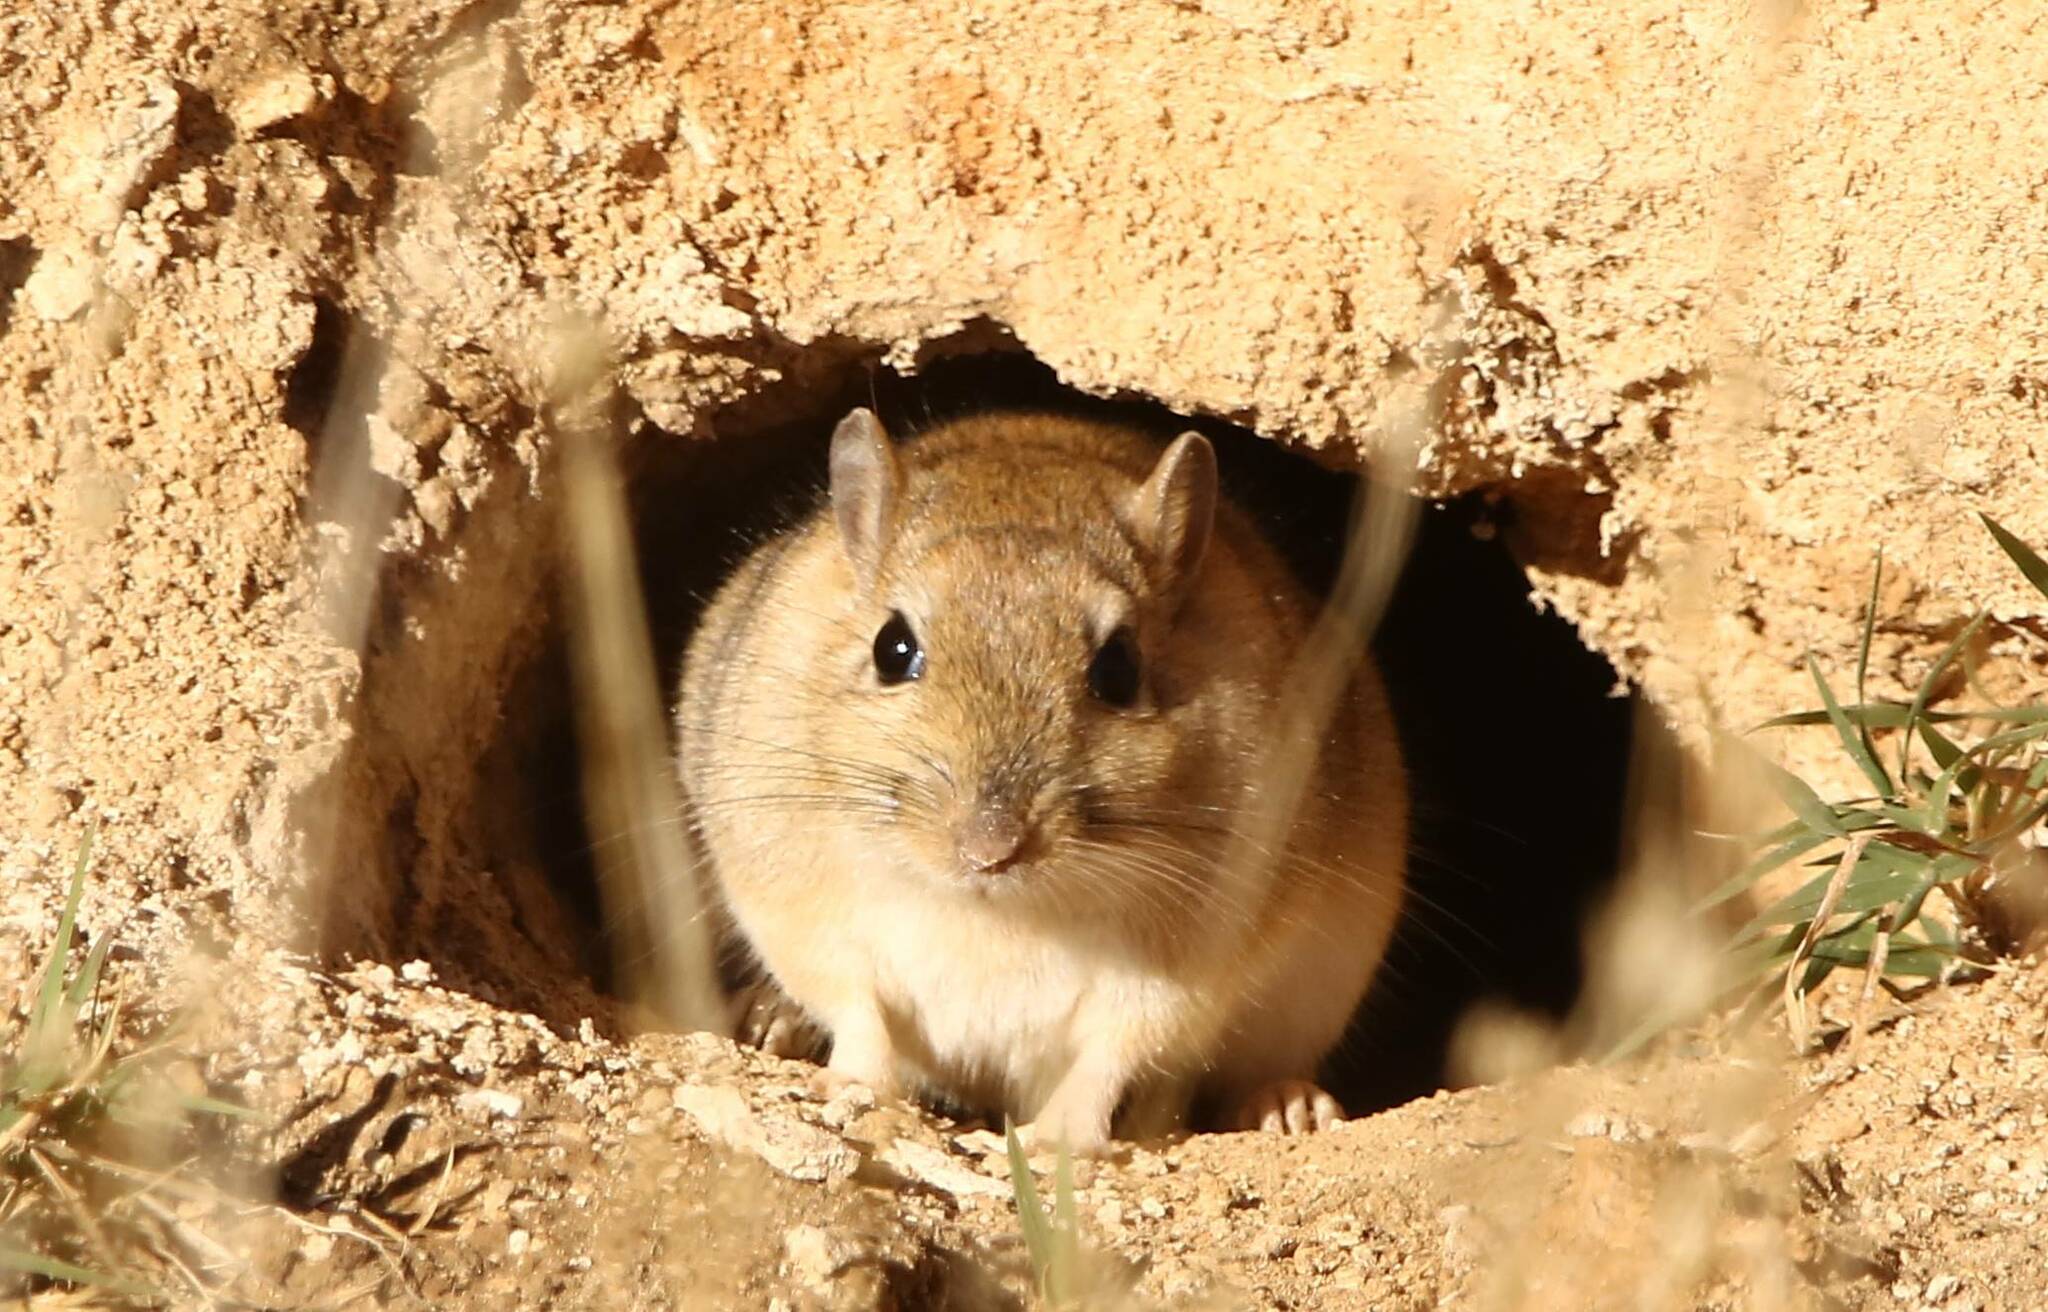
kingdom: Animalia
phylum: Chordata
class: Mammalia
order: Rodentia
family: Muridae
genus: Meriones
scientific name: Meriones shawi
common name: Shaw's jird
